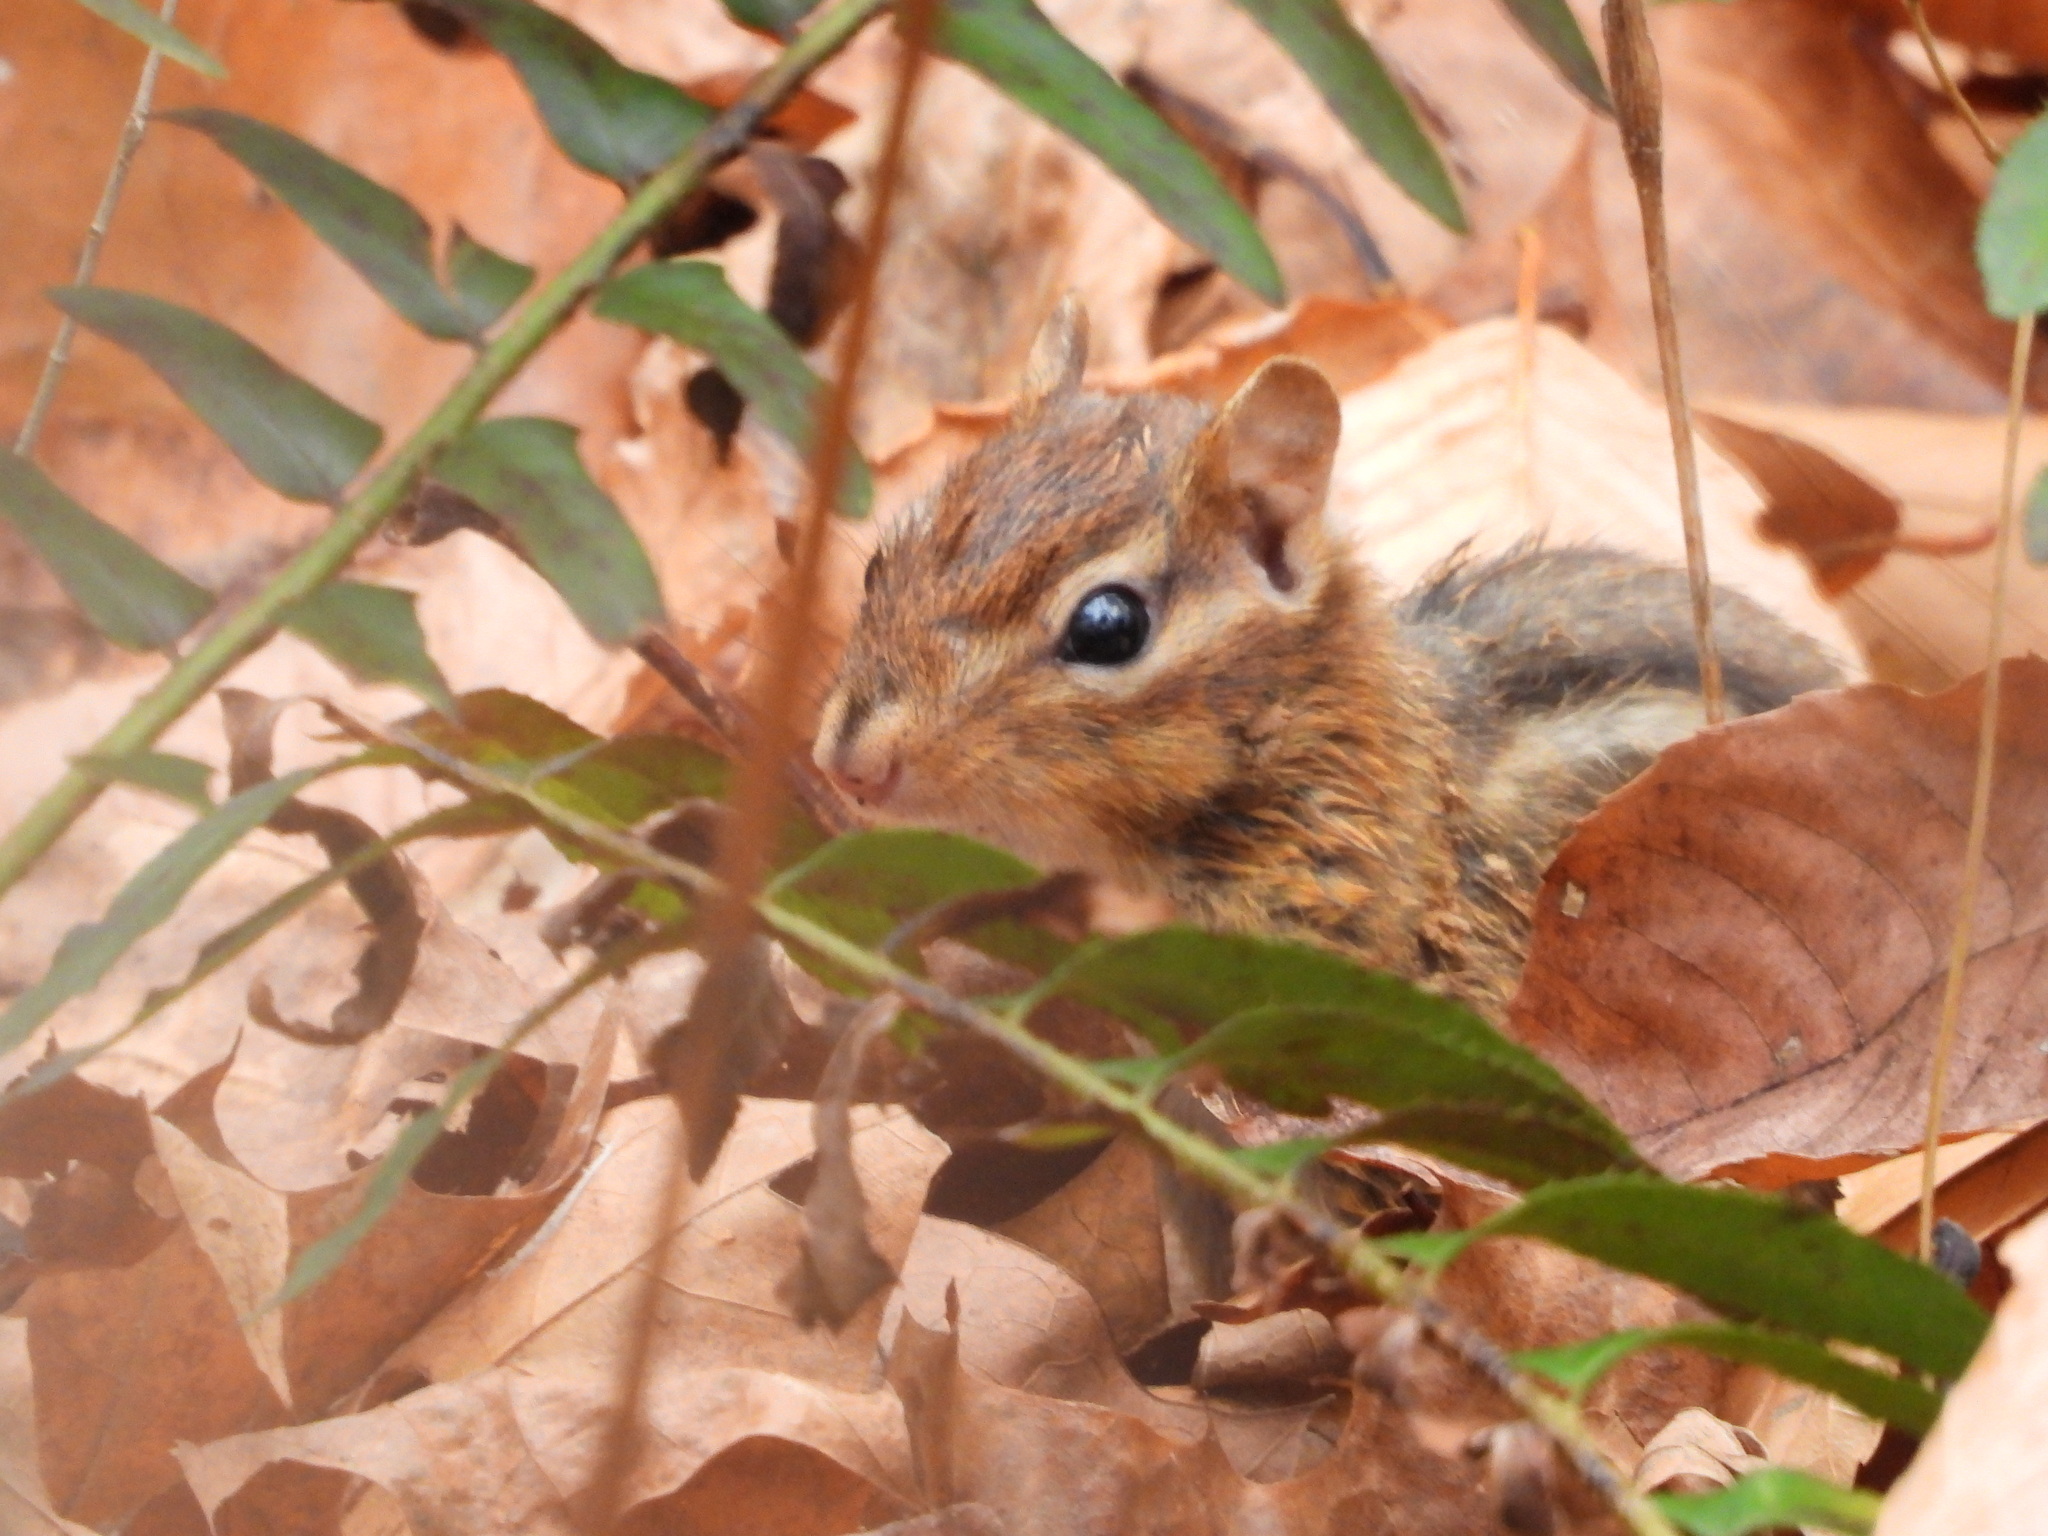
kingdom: Animalia
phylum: Chordata
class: Mammalia
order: Rodentia
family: Sciuridae
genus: Tamias
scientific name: Tamias striatus
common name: Eastern chipmunk
